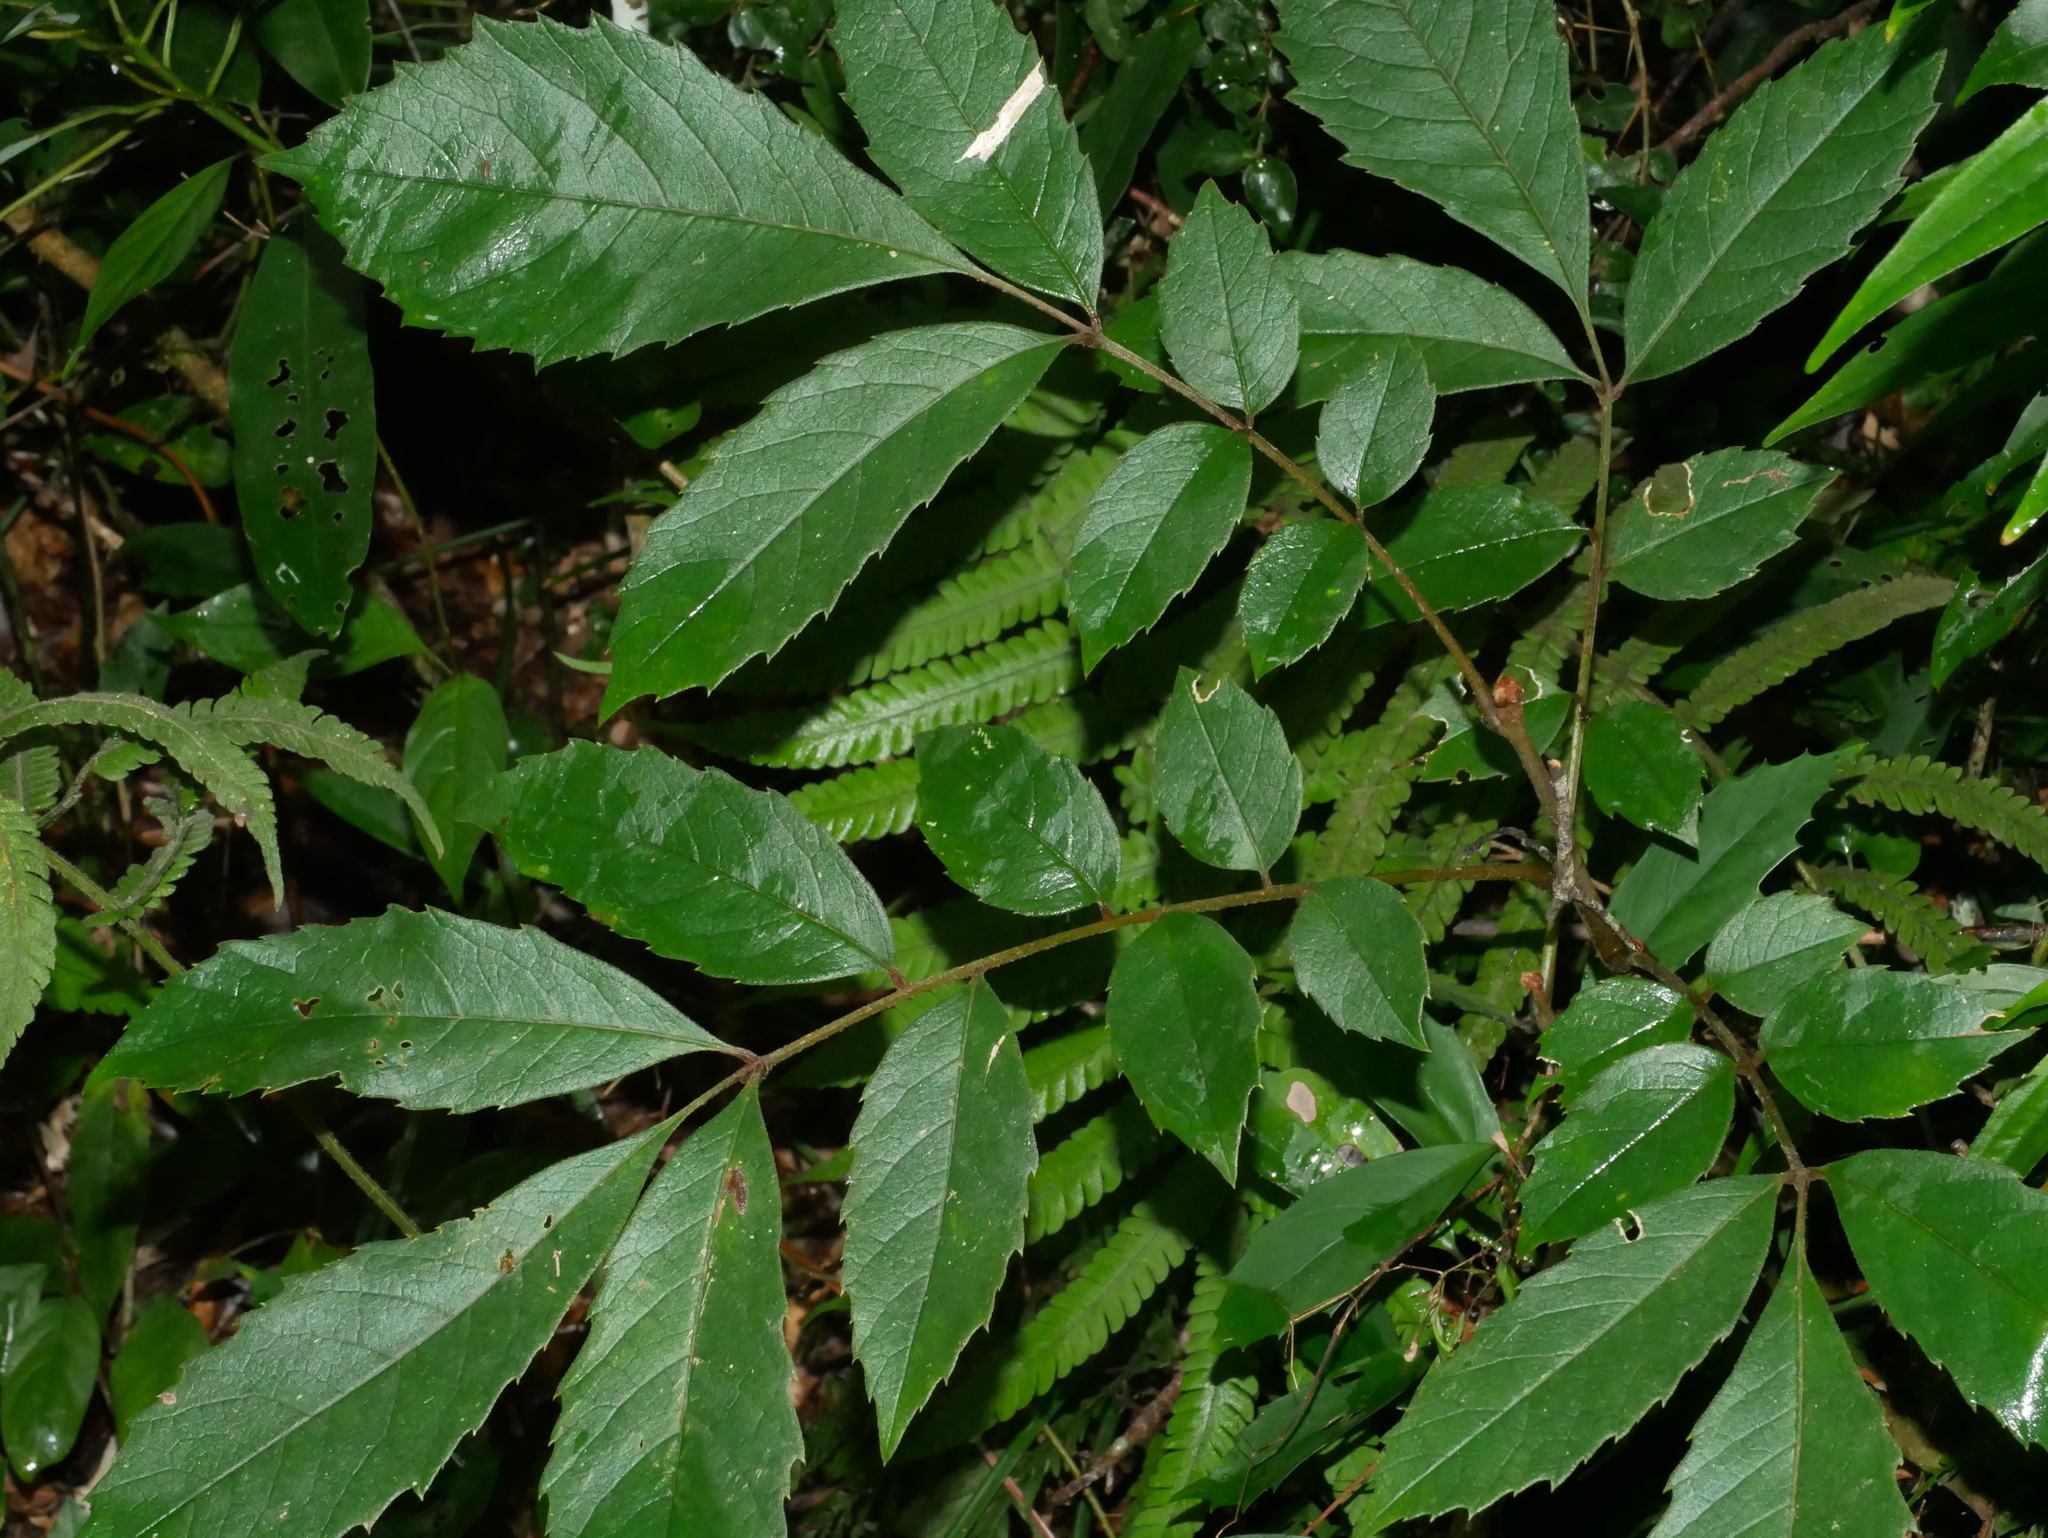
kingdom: Plantae
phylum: Tracheophyta
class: Magnoliopsida
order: Proteales
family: Sabiaceae
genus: Meliosma
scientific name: Meliosma rhoifolia
